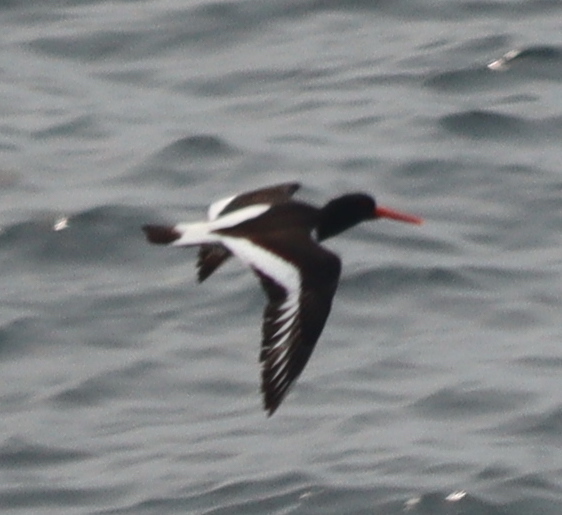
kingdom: Animalia
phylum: Chordata
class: Aves
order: Charadriiformes
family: Haematopodidae
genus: Haematopus
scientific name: Haematopus ostralegus
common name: Eurasian oystercatcher
